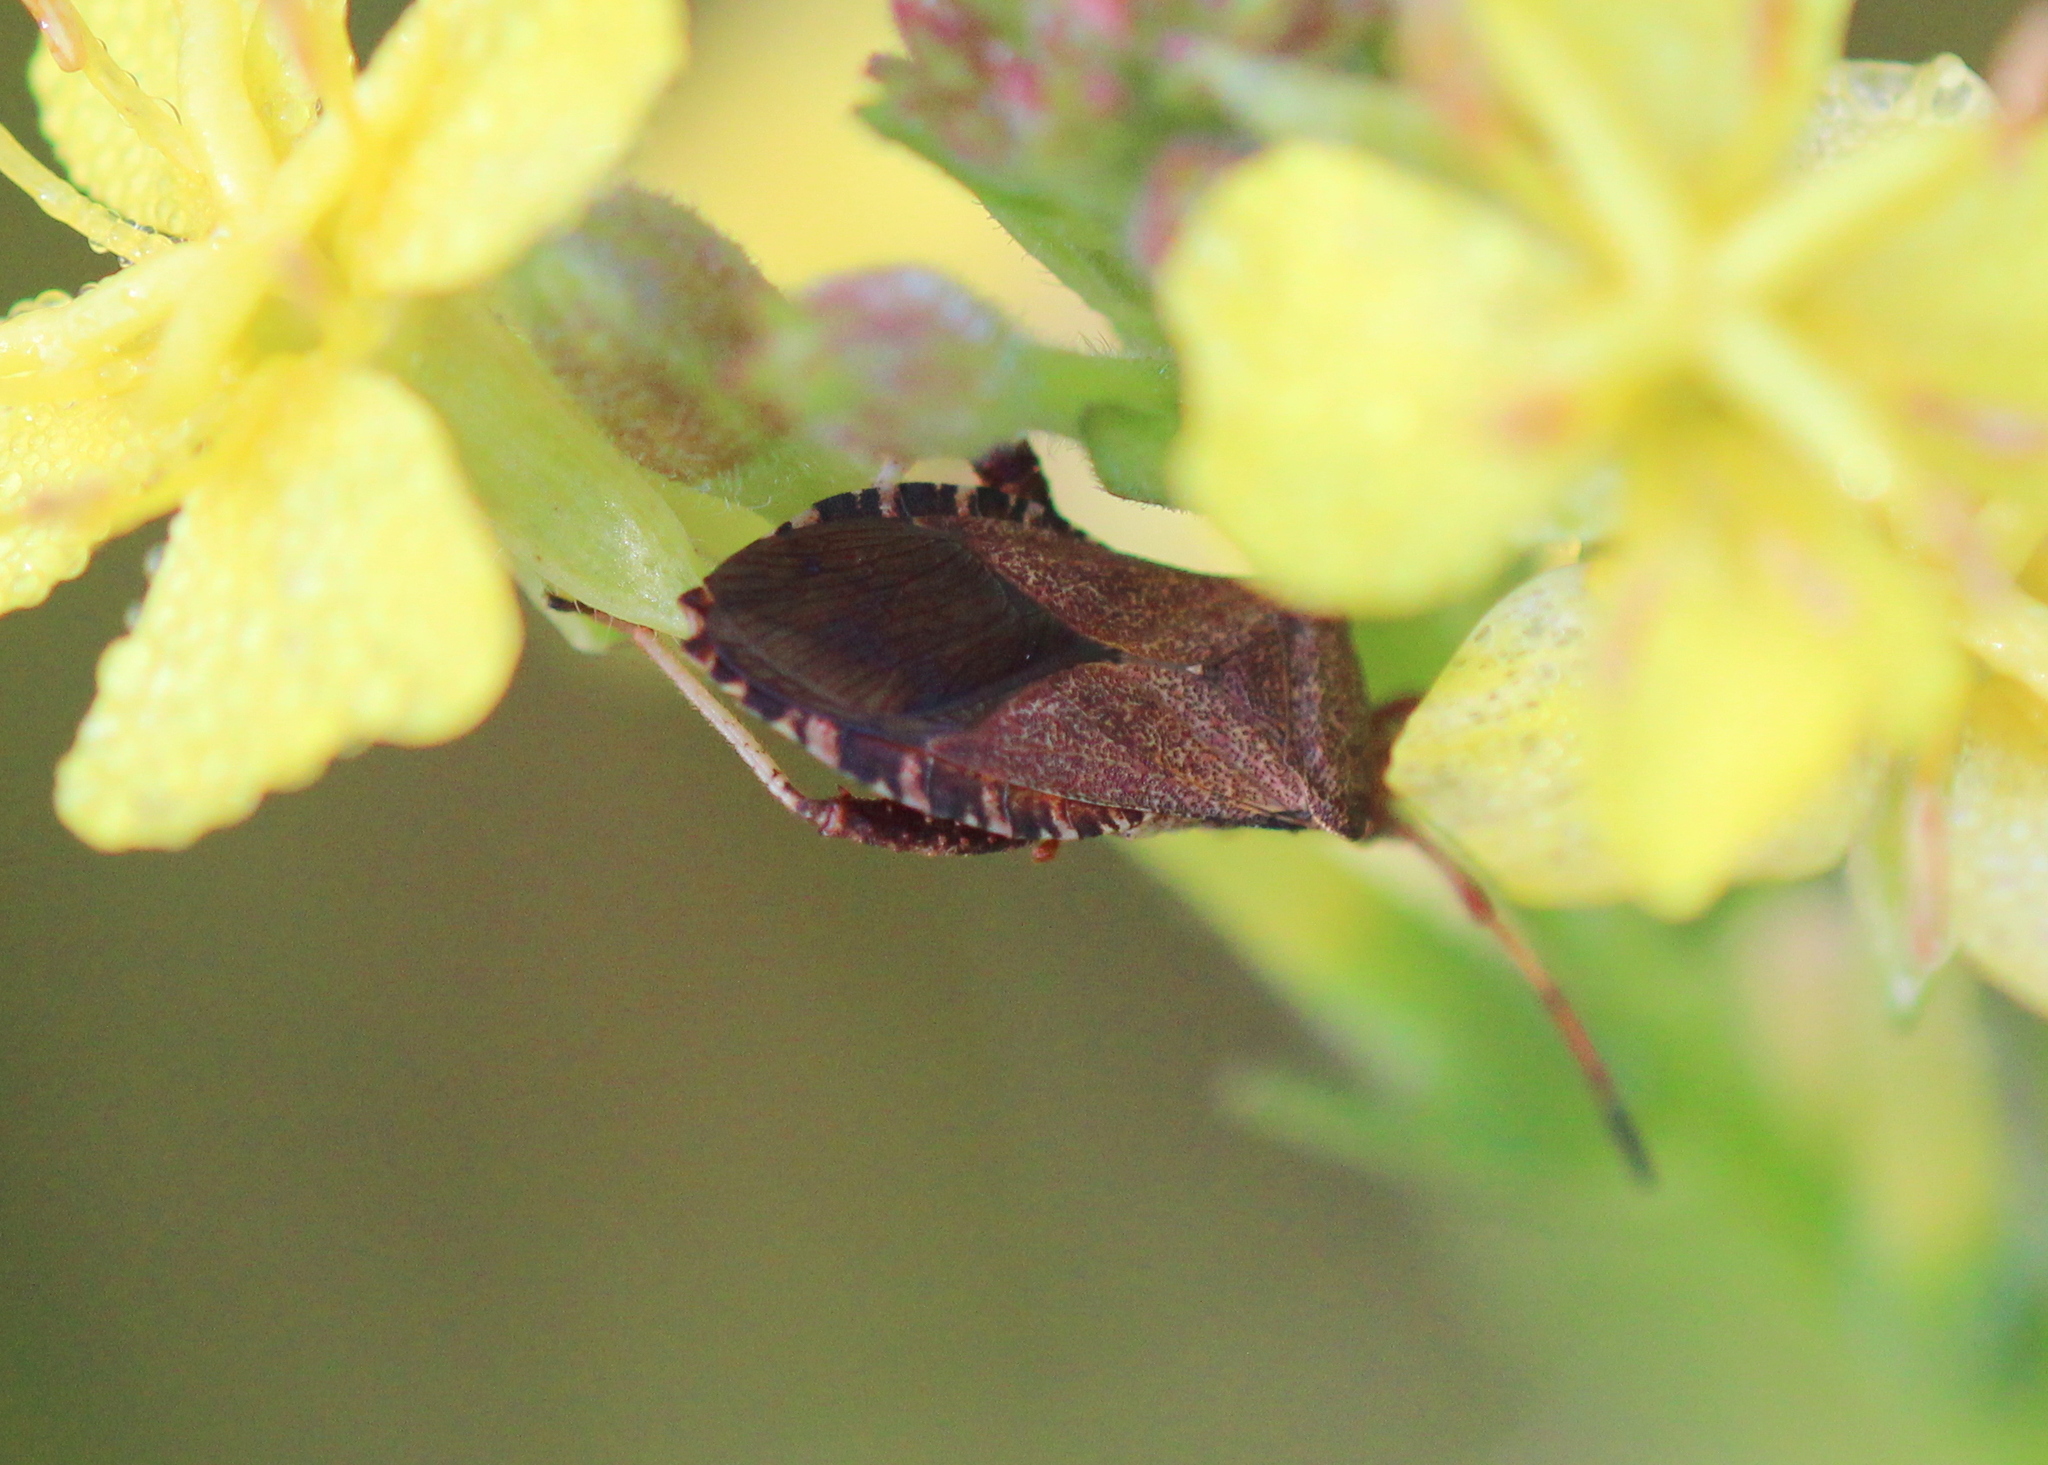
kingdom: Animalia
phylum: Arthropoda
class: Insecta
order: Hemiptera
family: Coreidae
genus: Euthochtha
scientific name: Euthochtha galeator
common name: Helmeted squash bug
